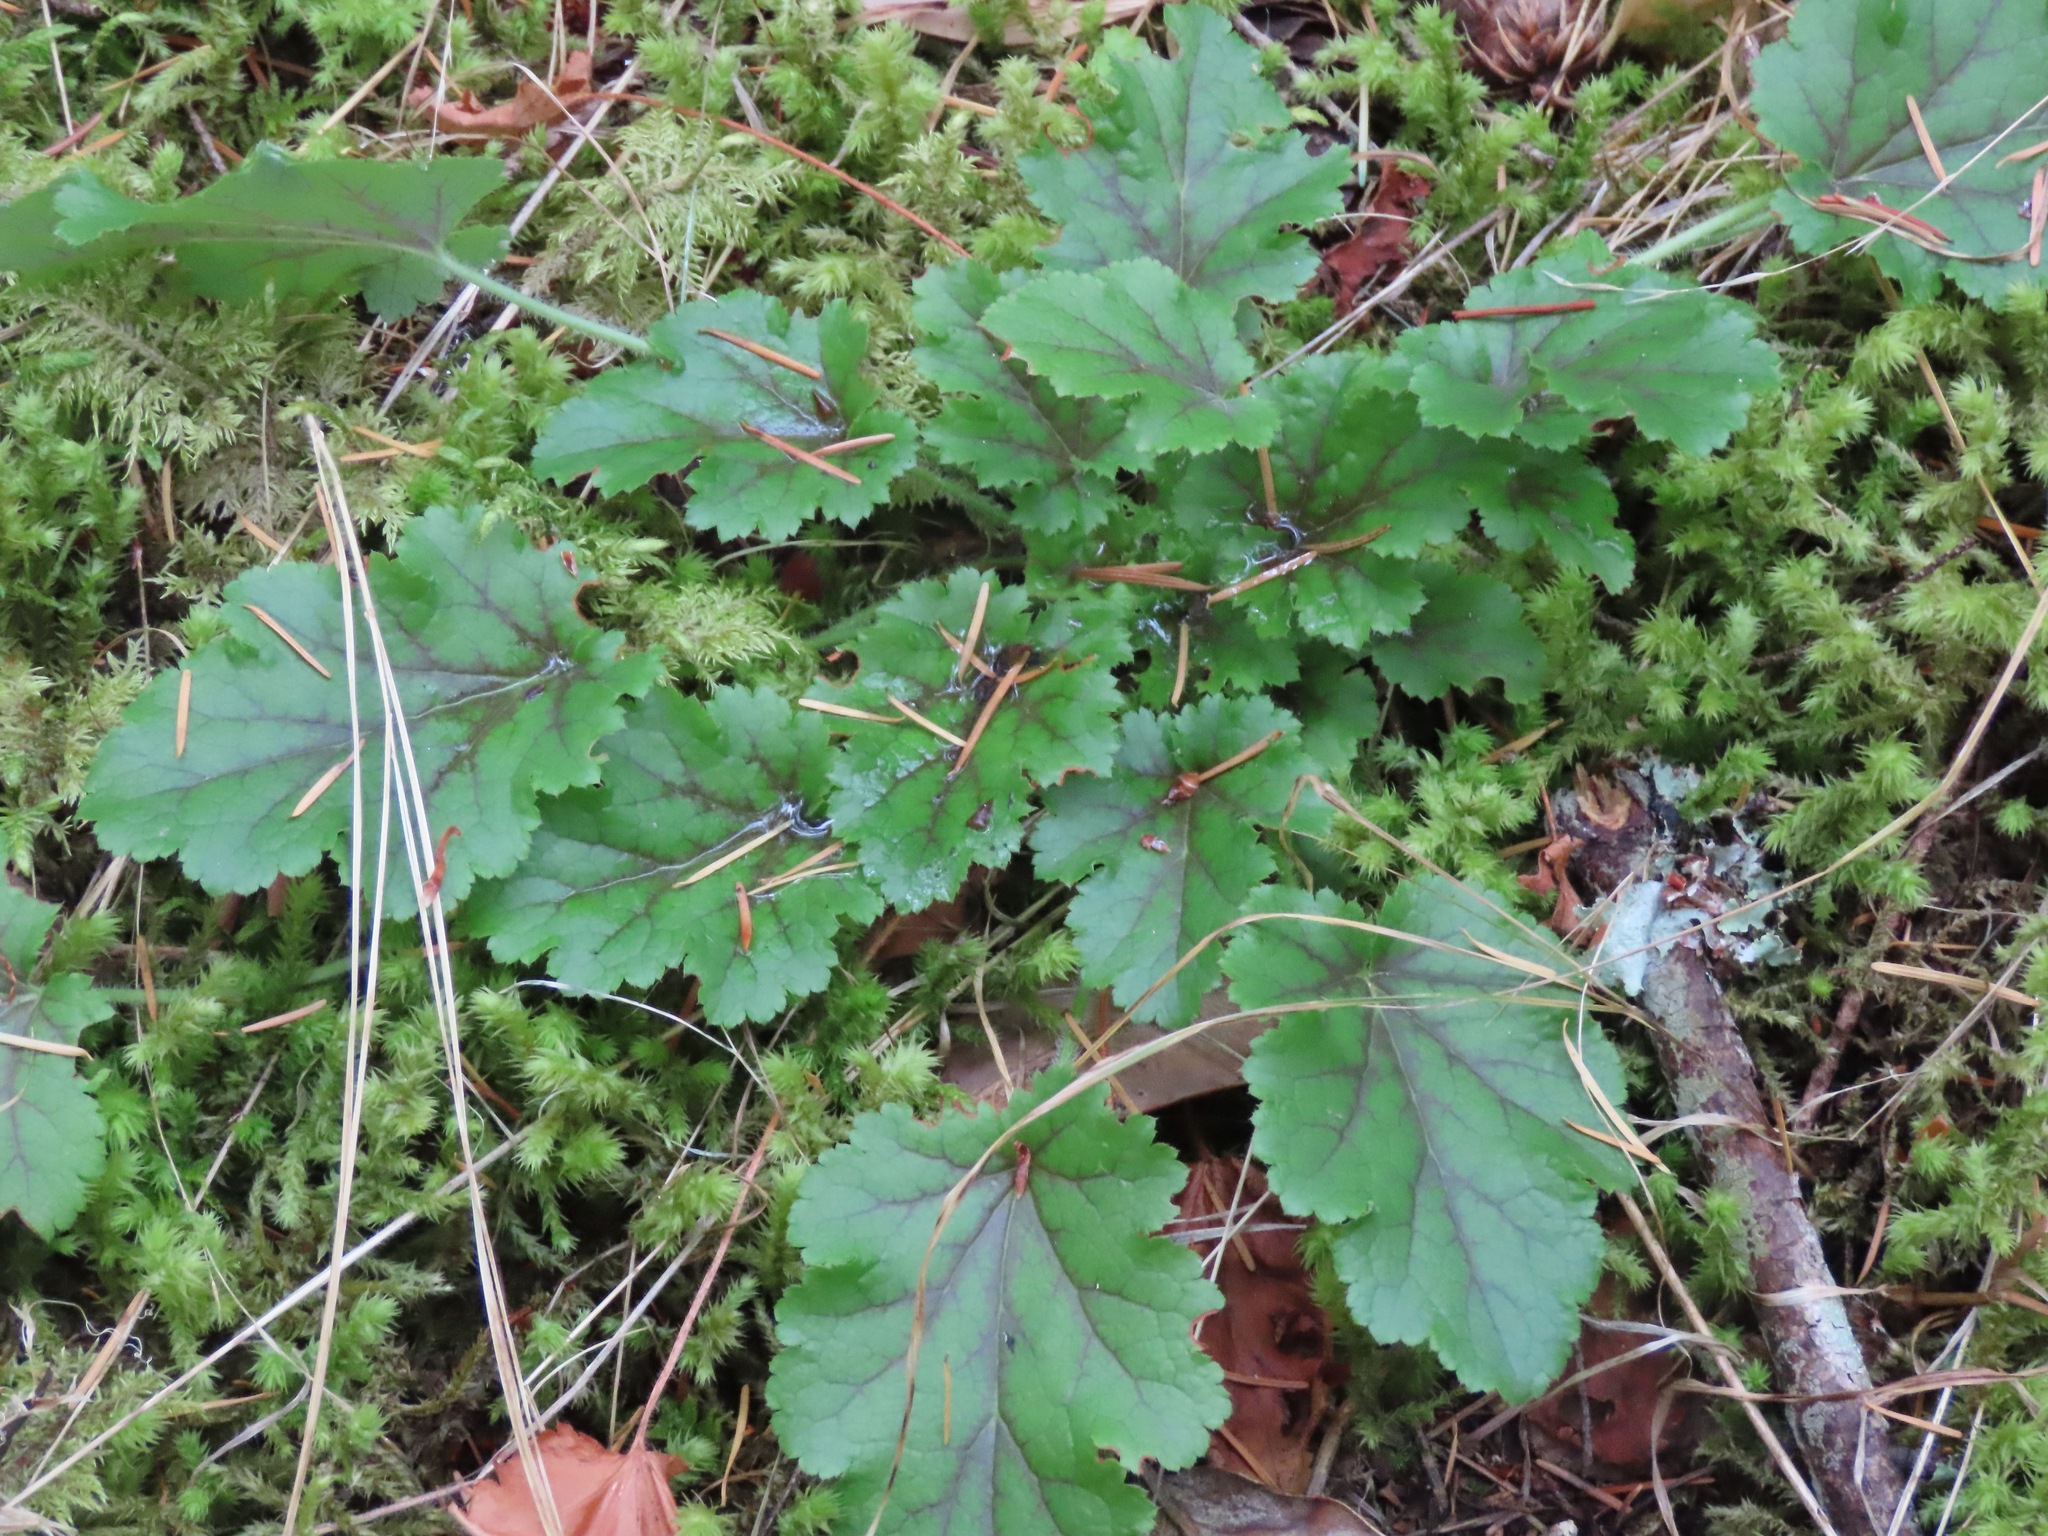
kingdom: Plantae
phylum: Tracheophyta
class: Magnoliopsida
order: Saxifragales
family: Saxifragaceae
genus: Heuchera
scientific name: Heuchera micrantha
